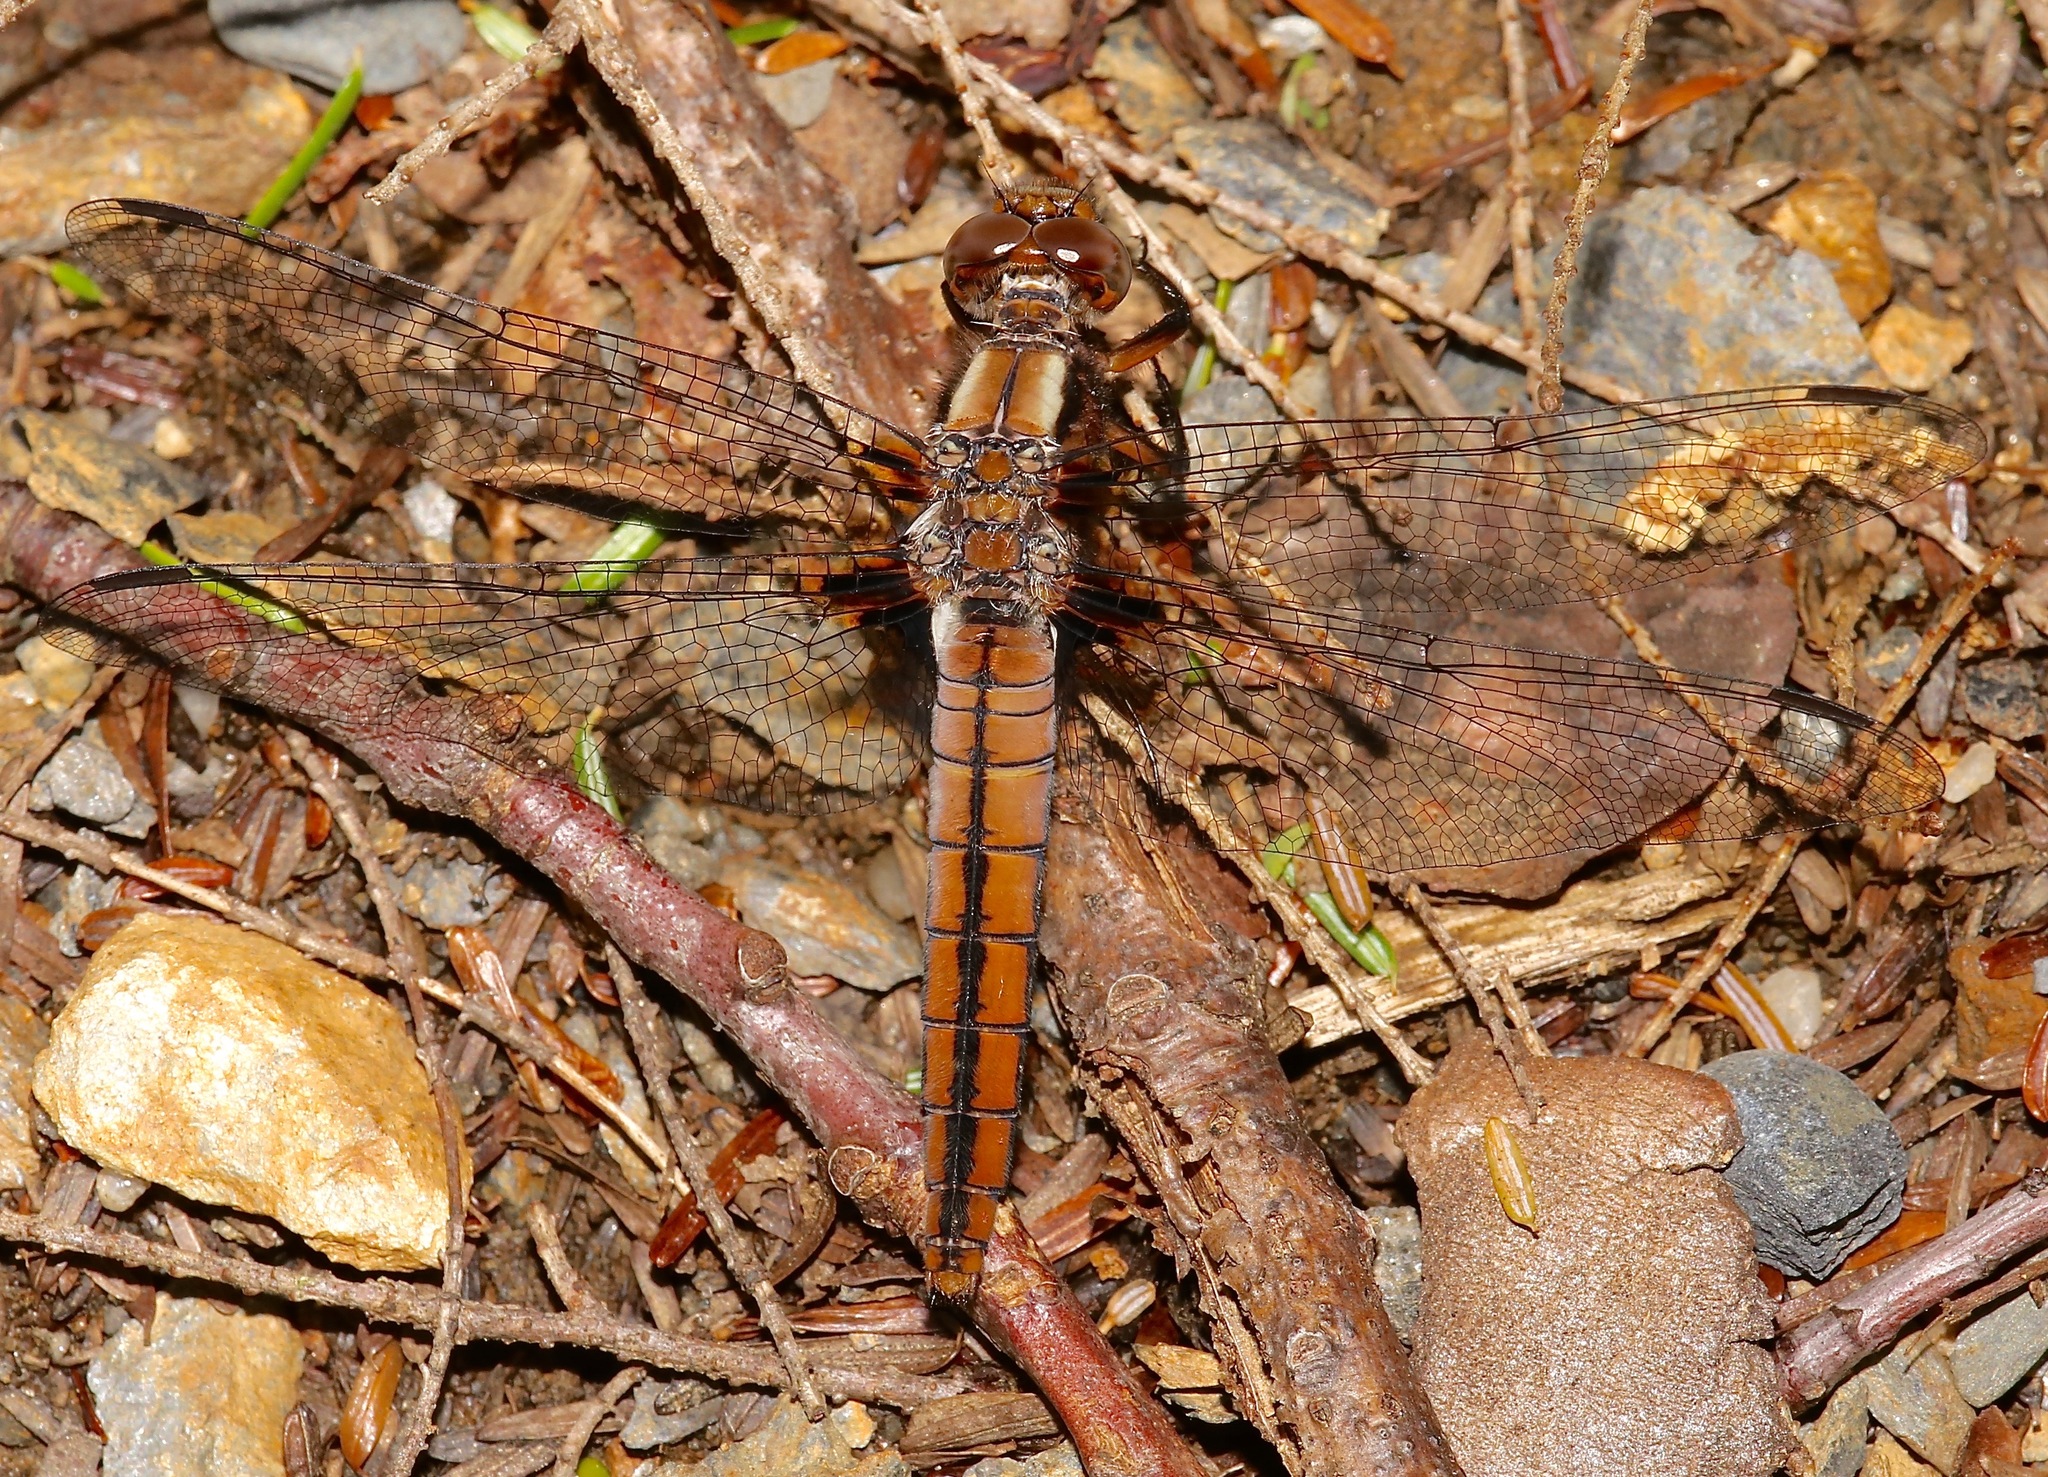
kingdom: Animalia
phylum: Arthropoda
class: Insecta
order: Odonata
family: Libellulidae
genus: Ladona
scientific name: Ladona julia
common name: Chalk-fronted corporal
